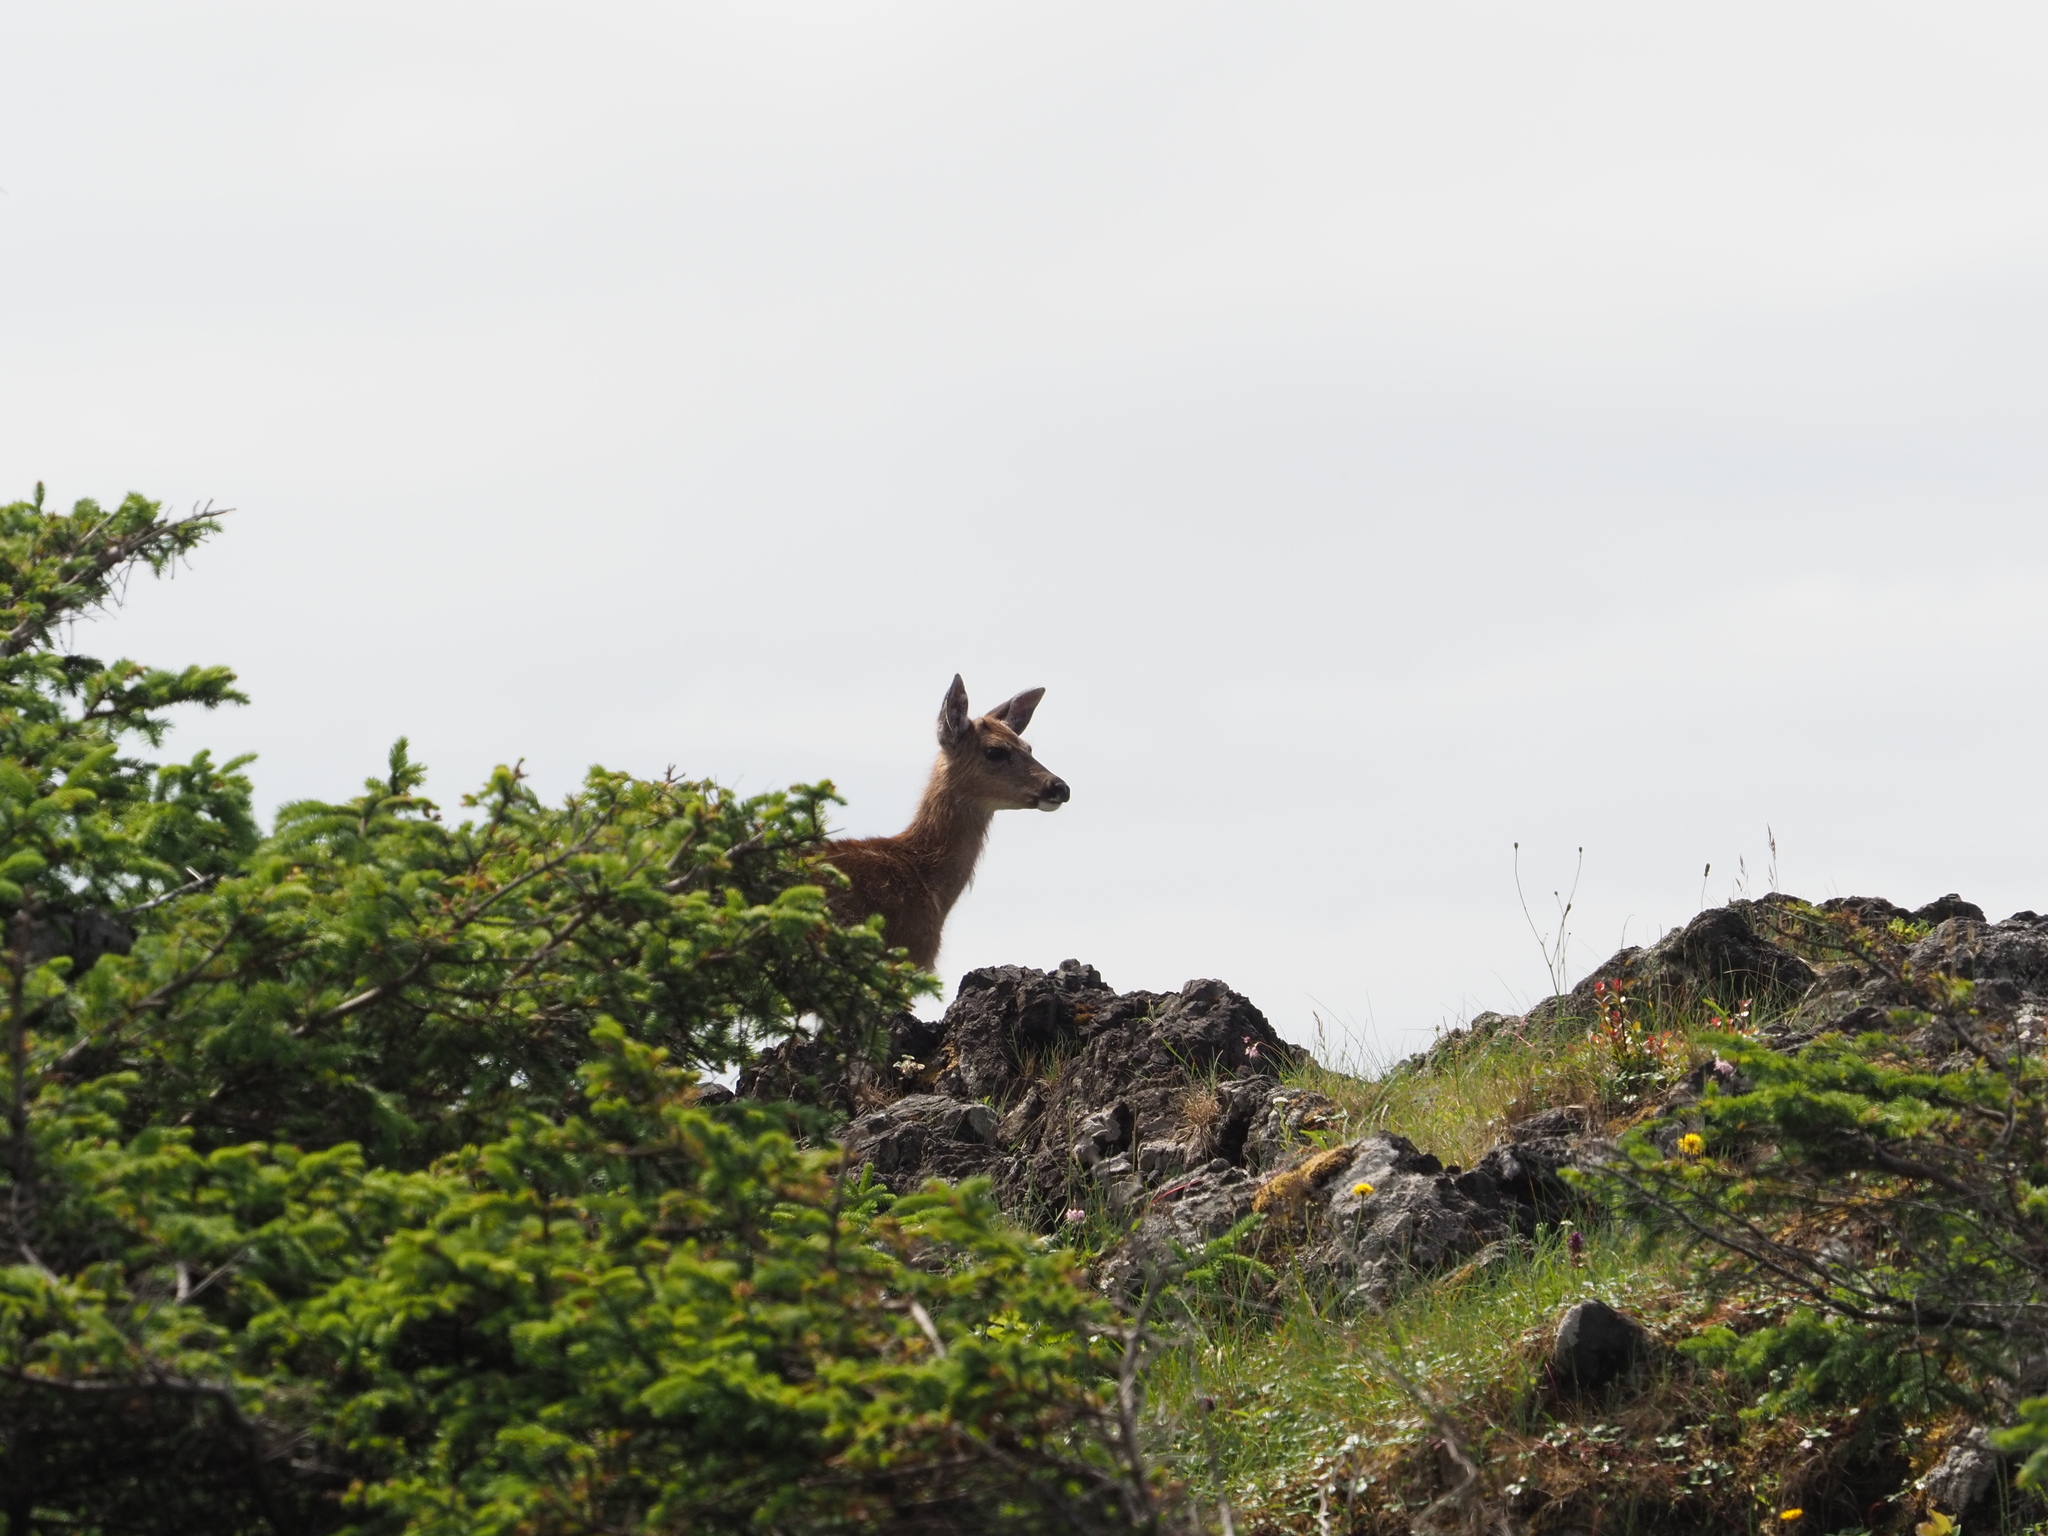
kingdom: Animalia
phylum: Chordata
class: Mammalia
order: Artiodactyla
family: Cervidae
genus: Odocoileus
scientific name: Odocoileus hemionus
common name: Mule deer
